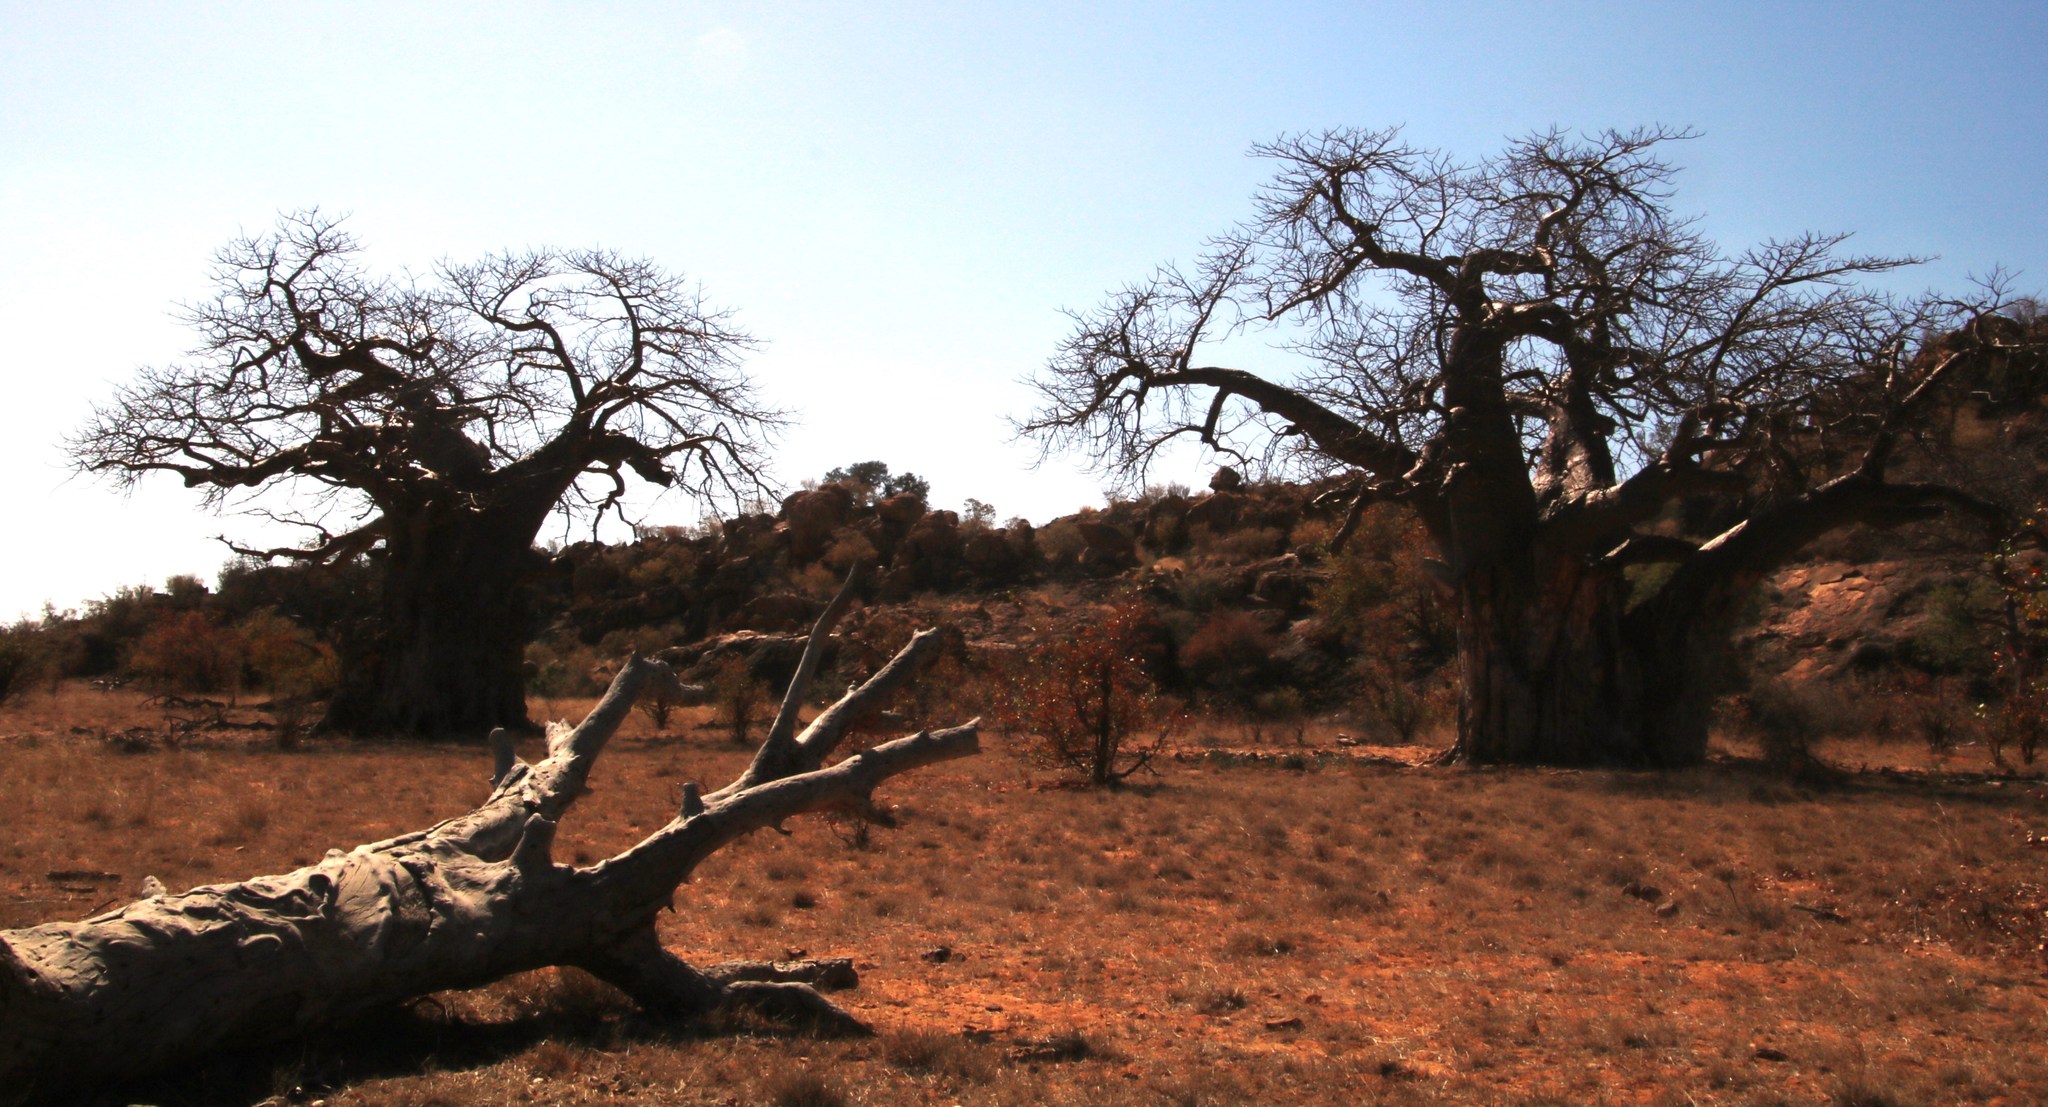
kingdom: Plantae
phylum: Tracheophyta
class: Magnoliopsida
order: Malvales
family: Malvaceae
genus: Adansonia
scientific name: Adansonia digitata
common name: Dead-rat-tree
